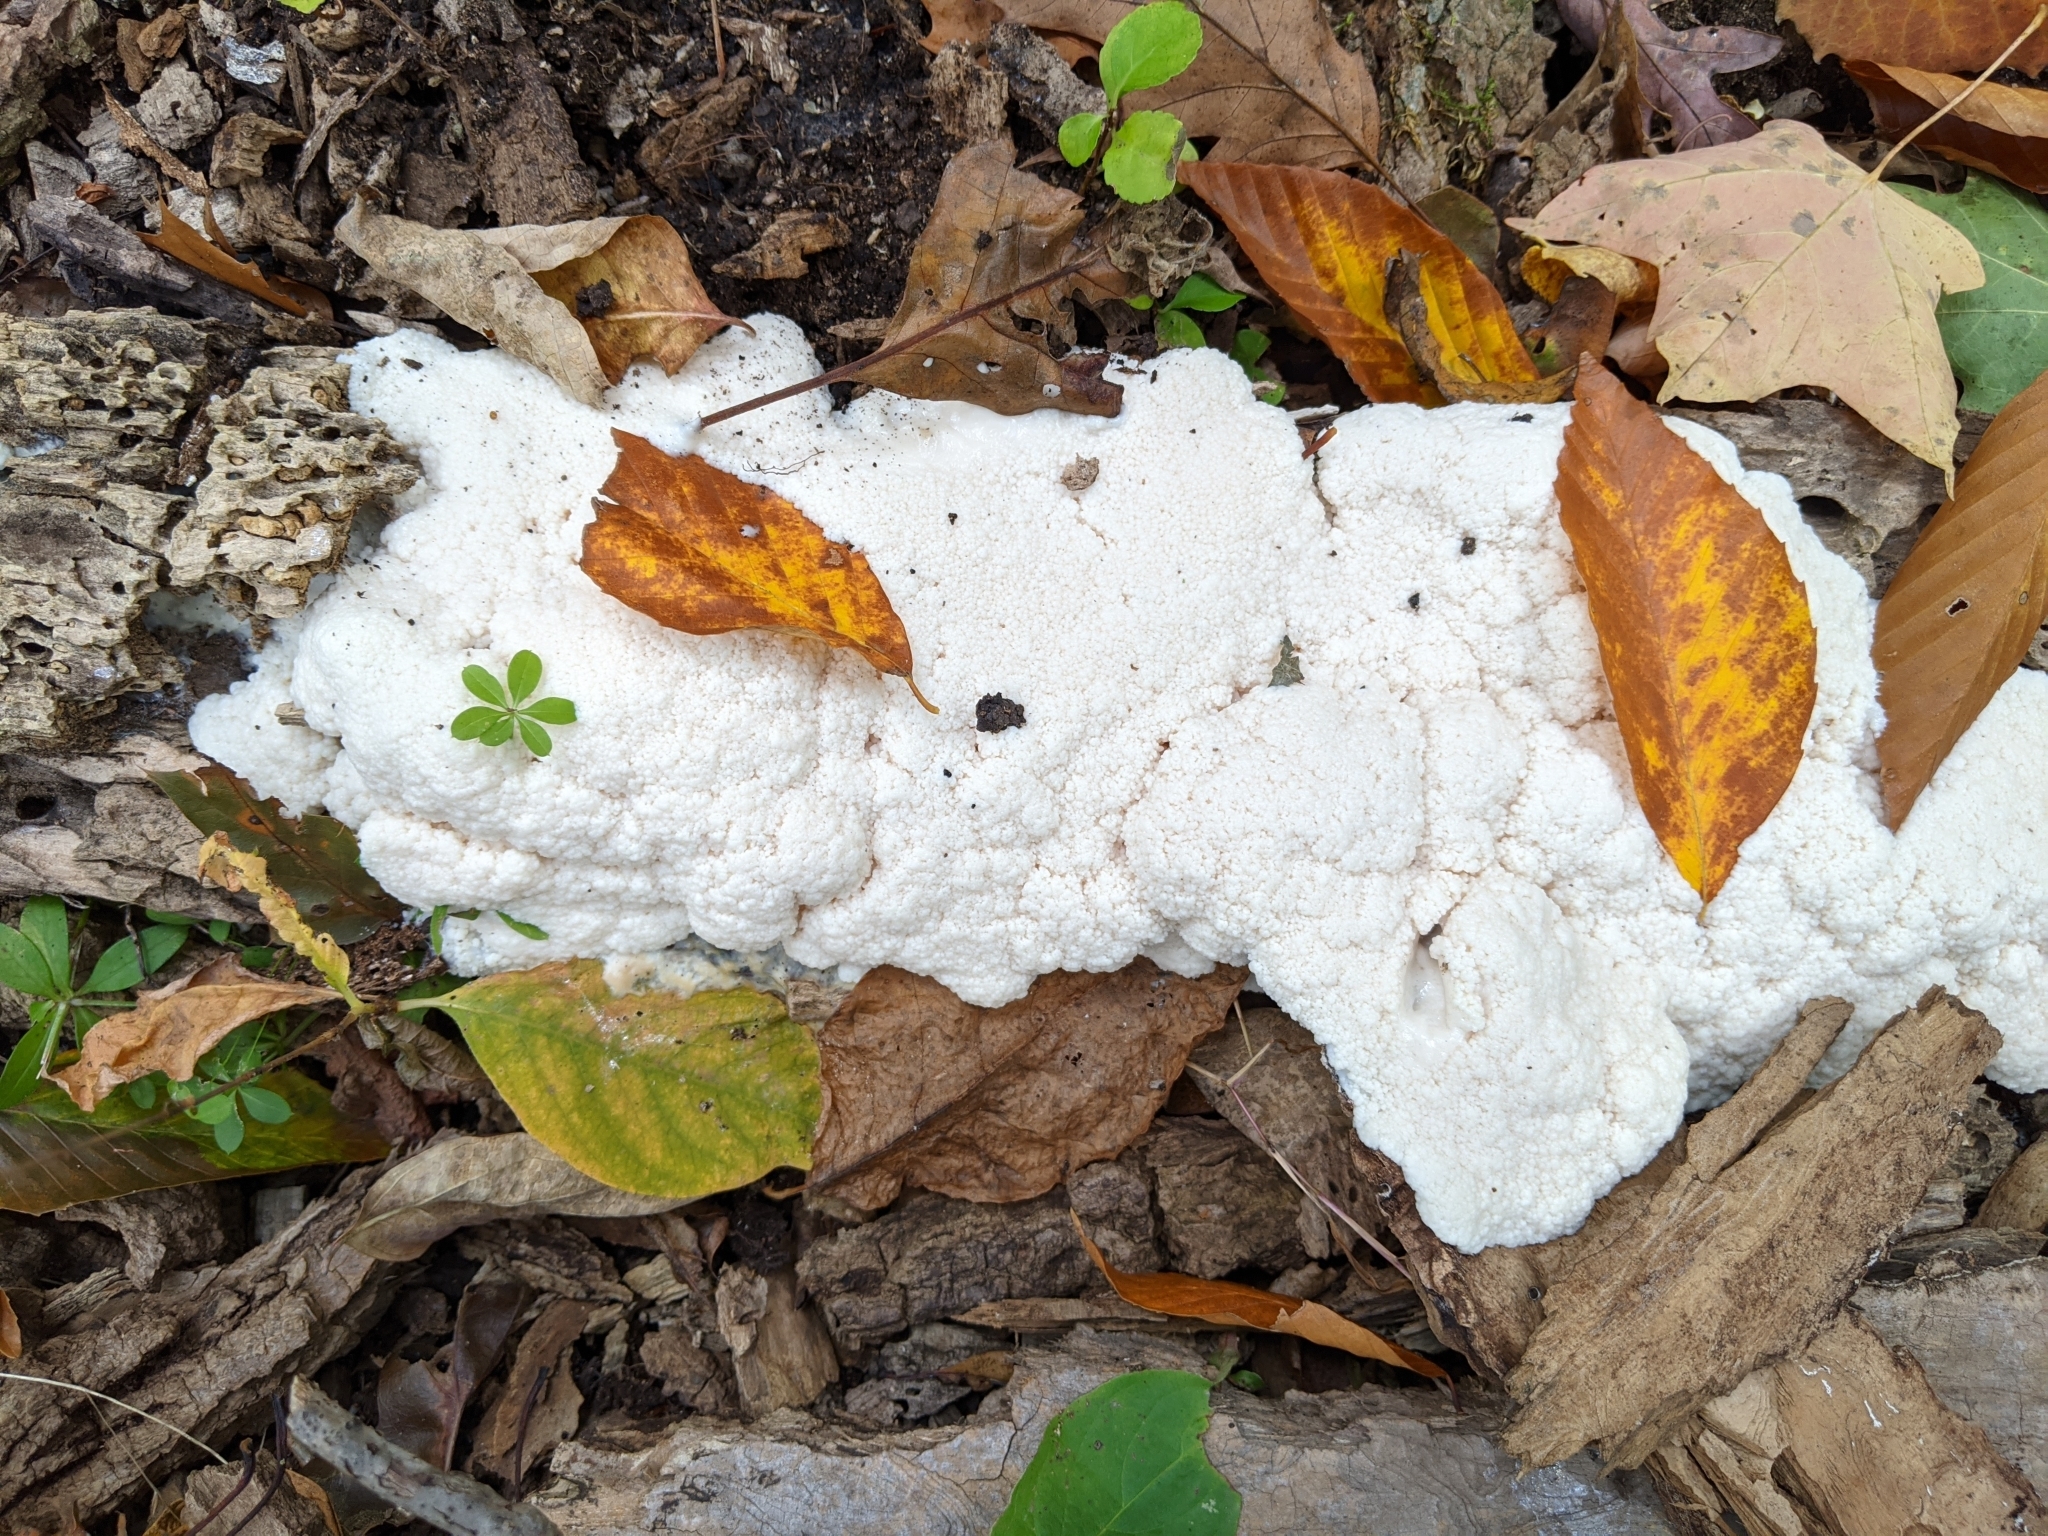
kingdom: Protozoa
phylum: Mycetozoa
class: Myxomycetes
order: Stemonitidales
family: Stemonitidaceae
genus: Brefeldia
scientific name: Brefeldia maxima
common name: Tapioca slime mold
